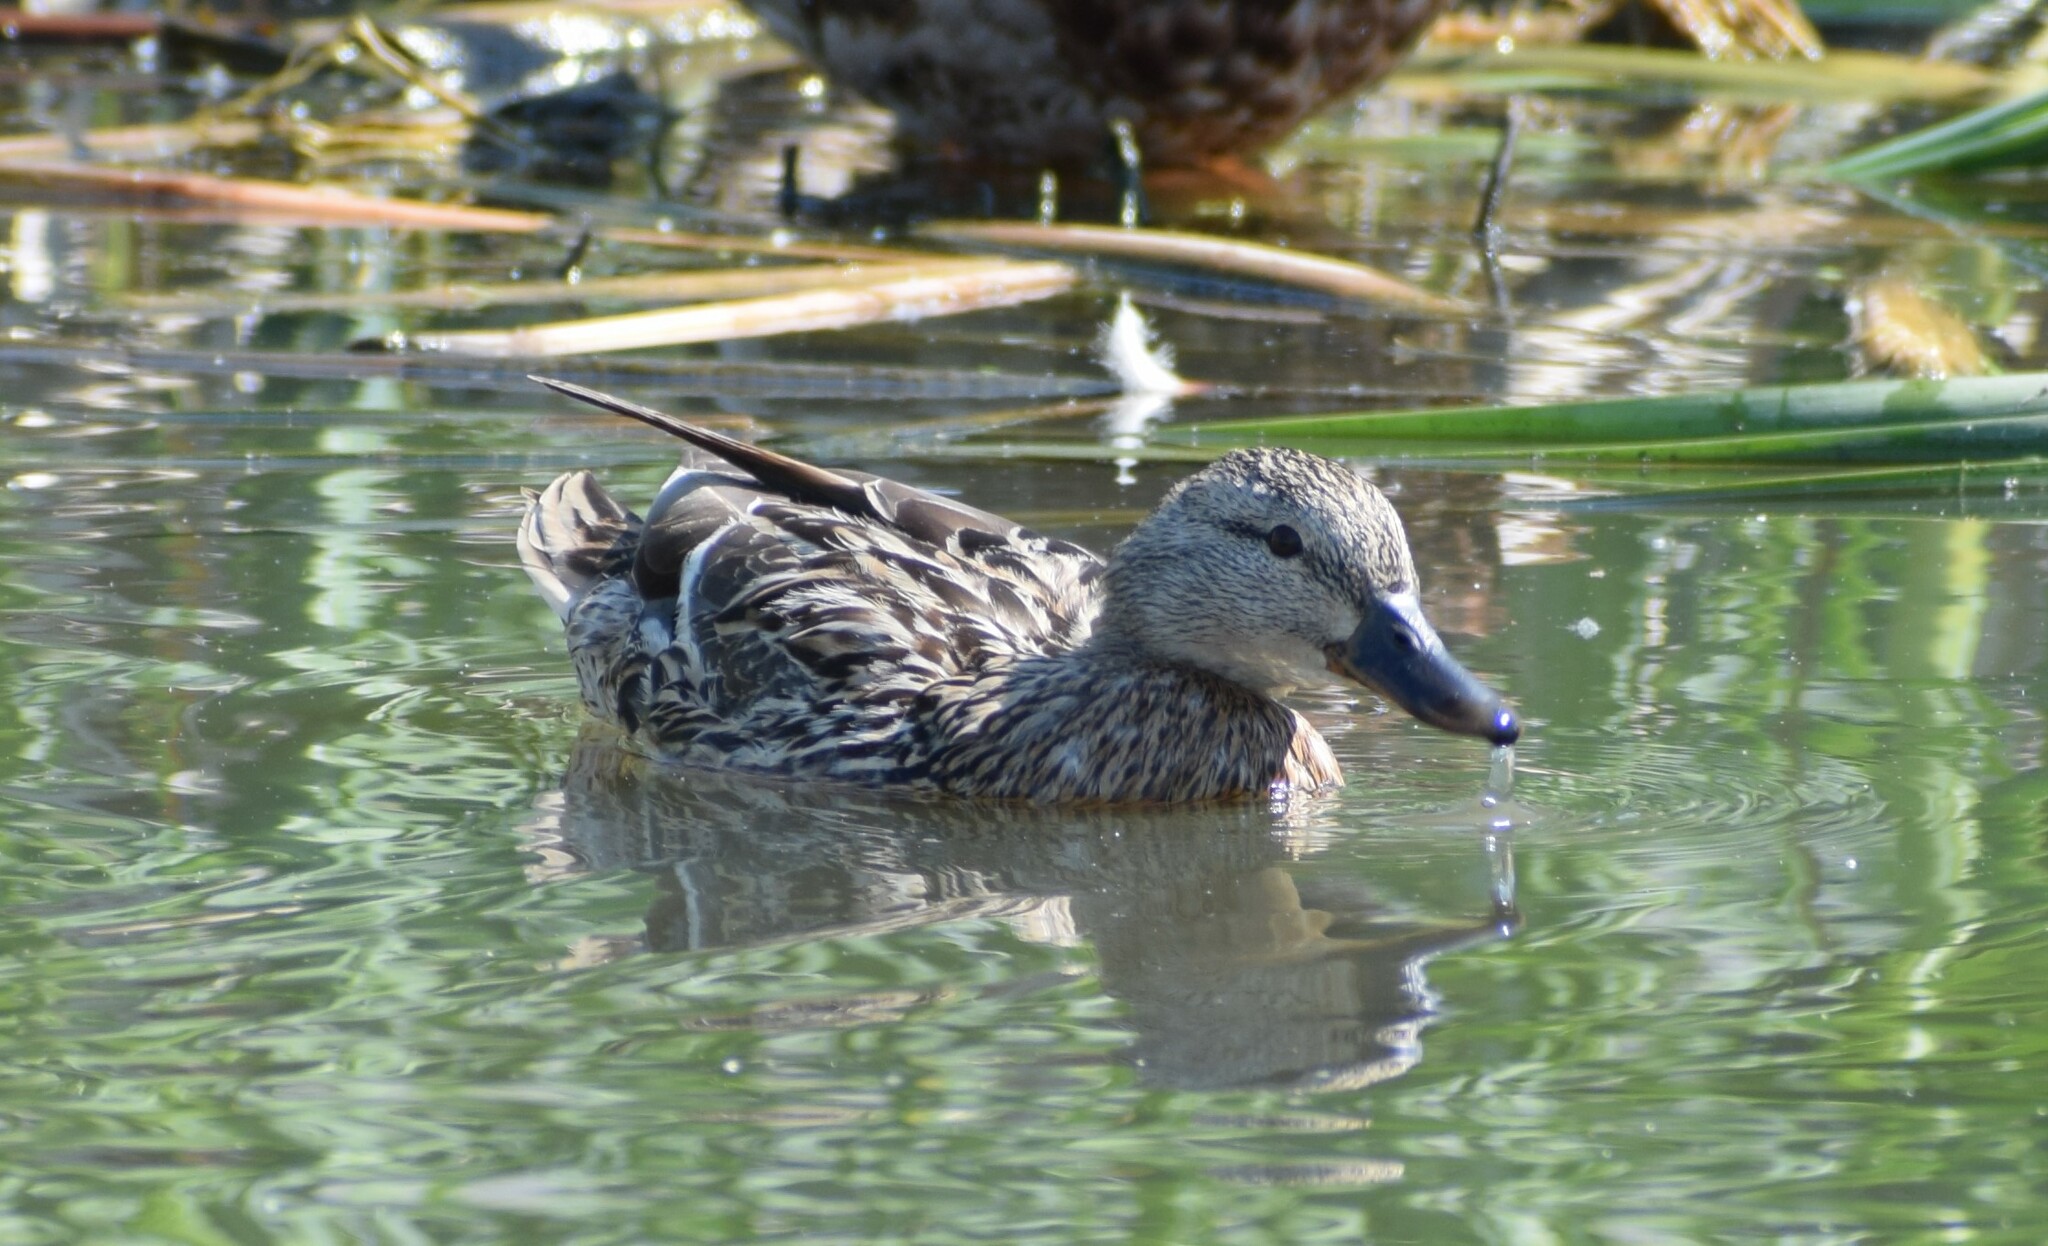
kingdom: Animalia
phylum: Chordata
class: Aves
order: Anseriformes
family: Anatidae
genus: Anas
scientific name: Anas platyrhynchos
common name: Mallard
